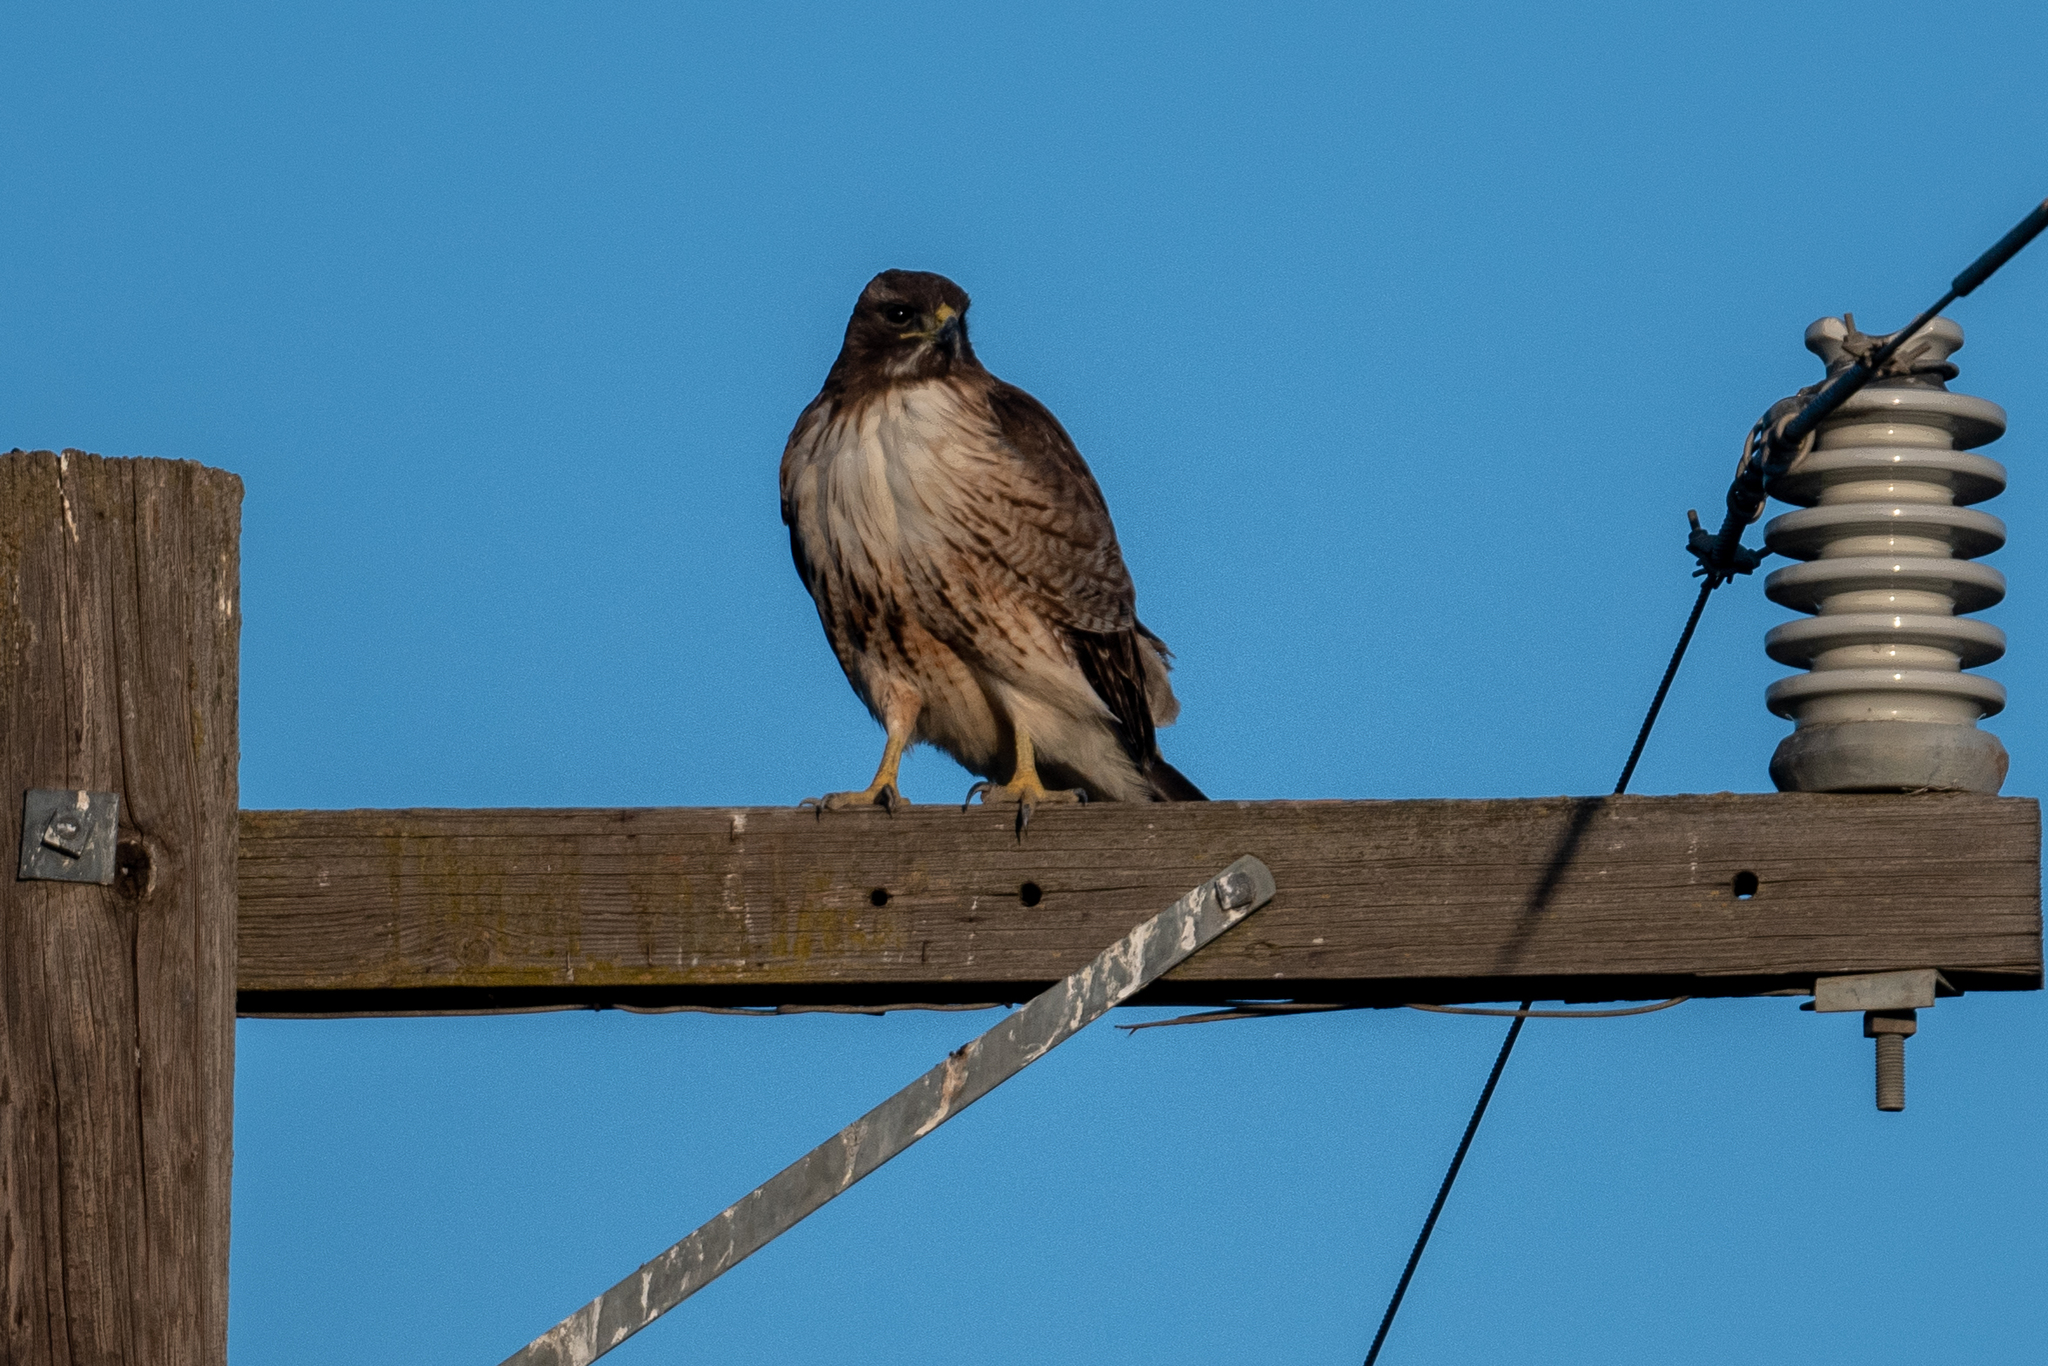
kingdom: Animalia
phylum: Chordata
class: Aves
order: Accipitriformes
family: Accipitridae
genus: Buteo
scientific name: Buteo jamaicensis
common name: Red-tailed hawk
